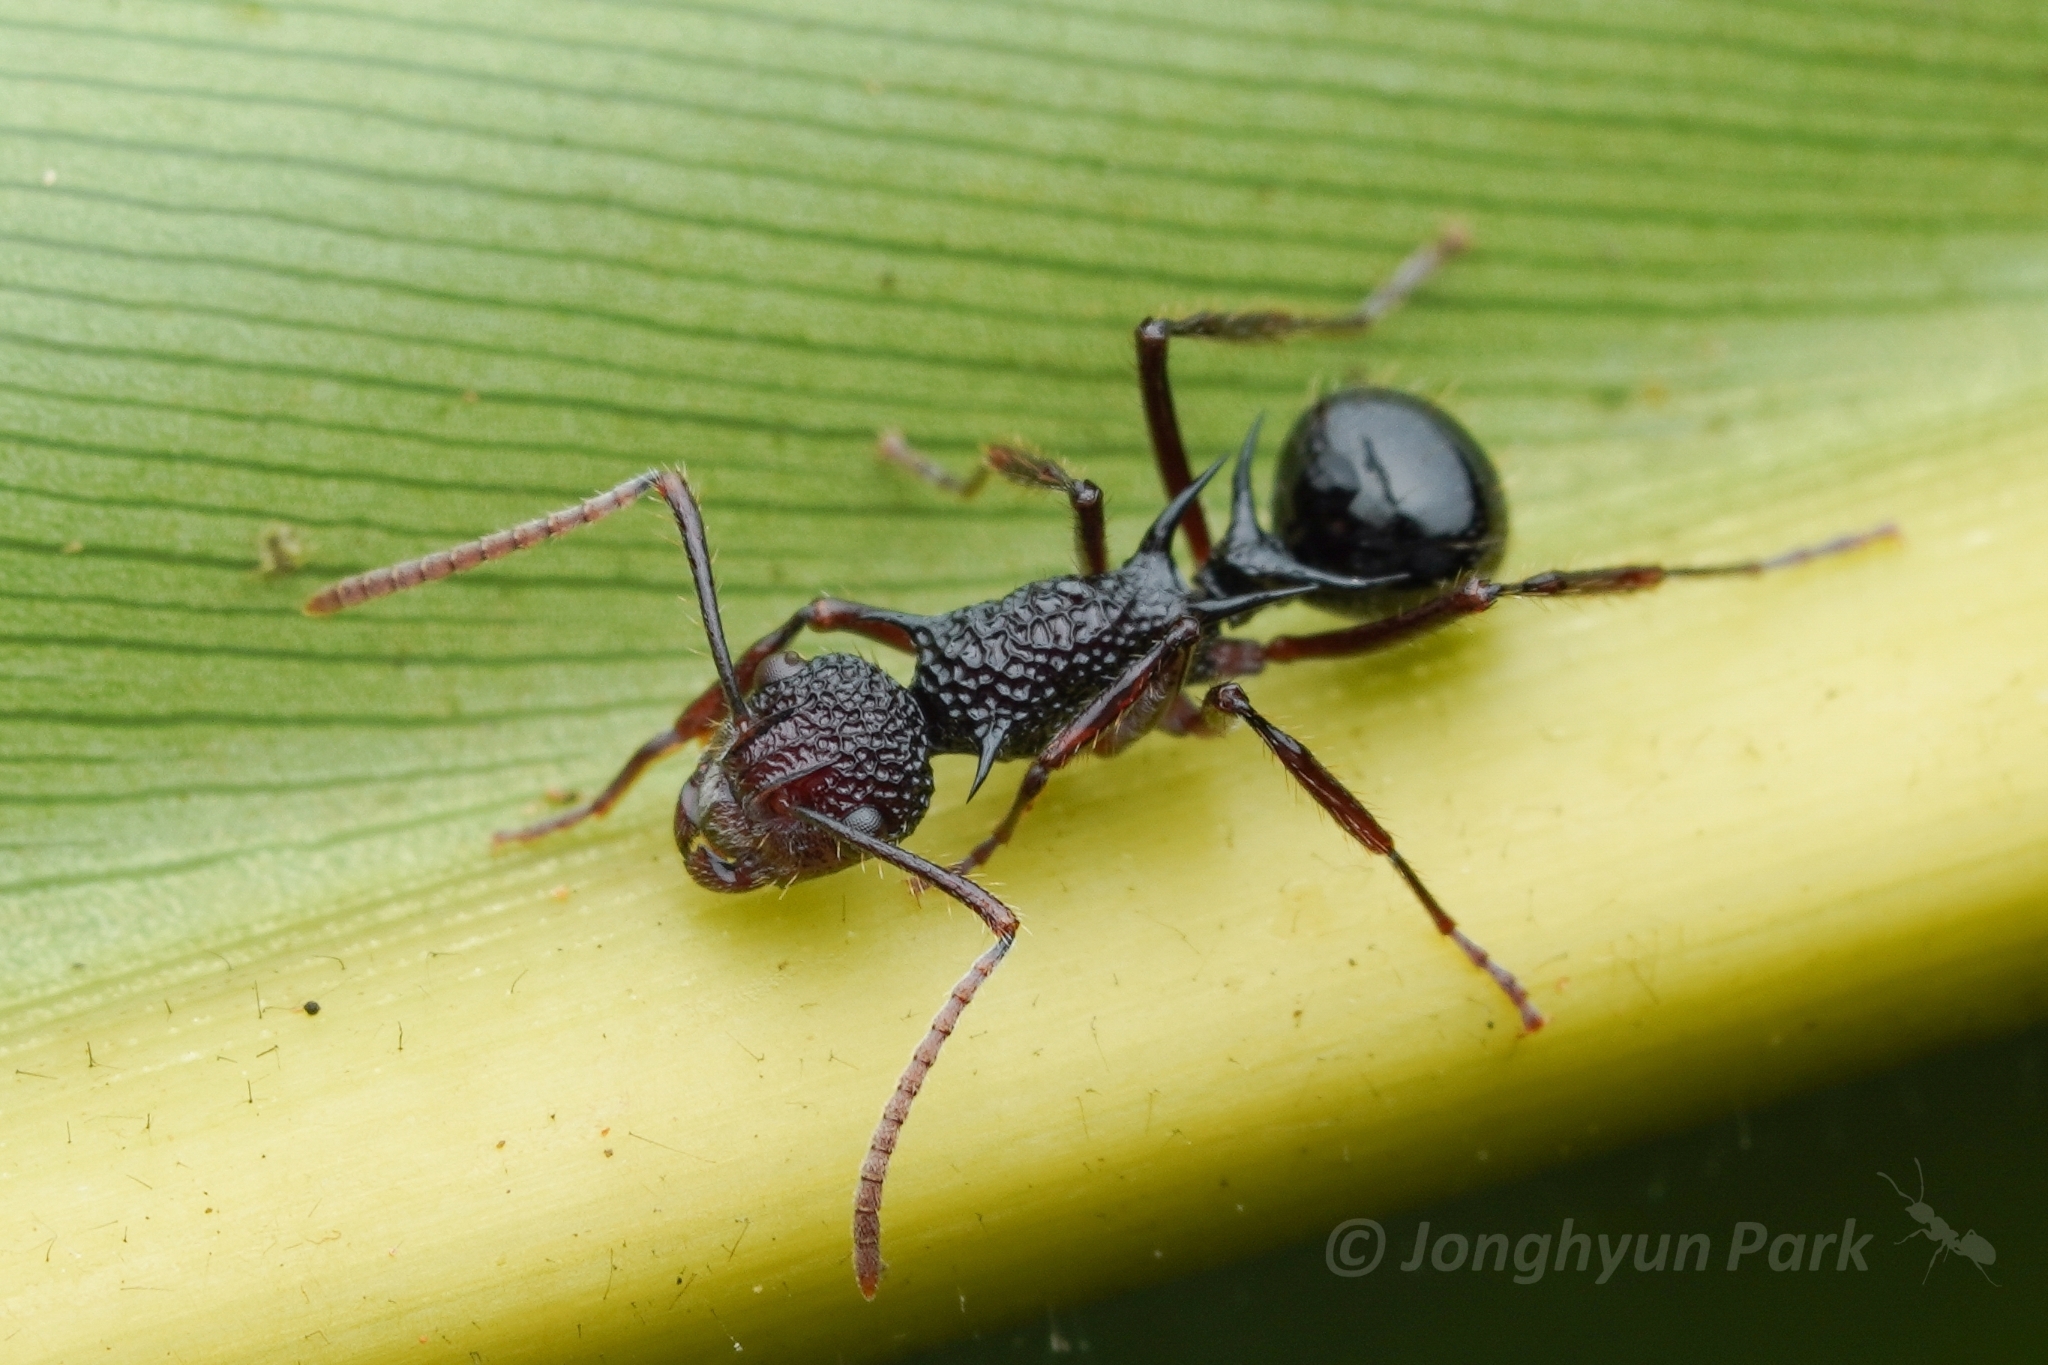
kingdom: Animalia
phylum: Arthropoda
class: Insecta
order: Hymenoptera
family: Formicidae
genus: Polyrhachis
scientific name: Polyrhachis rufipes
